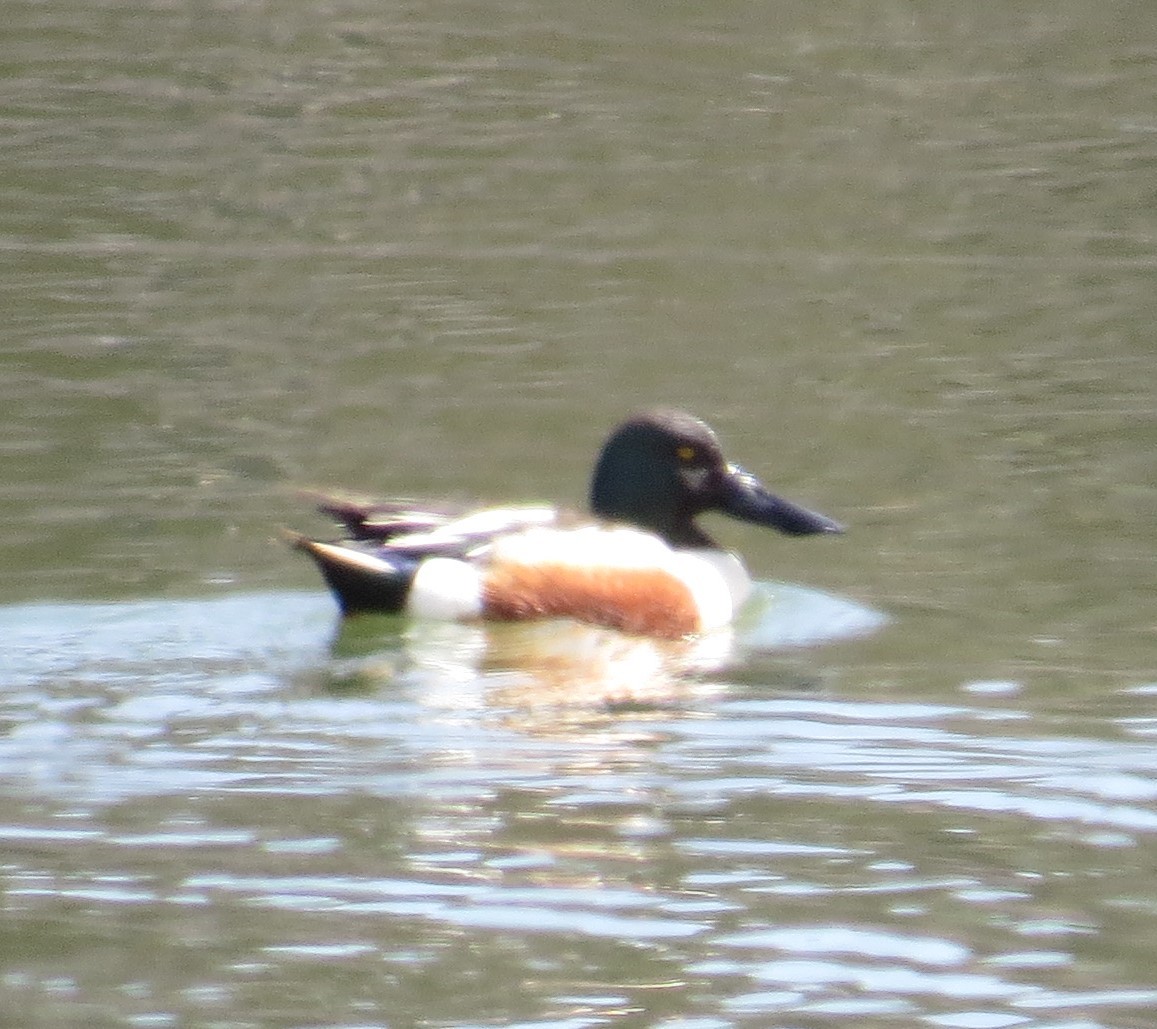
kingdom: Animalia
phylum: Chordata
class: Aves
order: Anseriformes
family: Anatidae
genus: Spatula
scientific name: Spatula clypeata
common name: Northern shoveler
